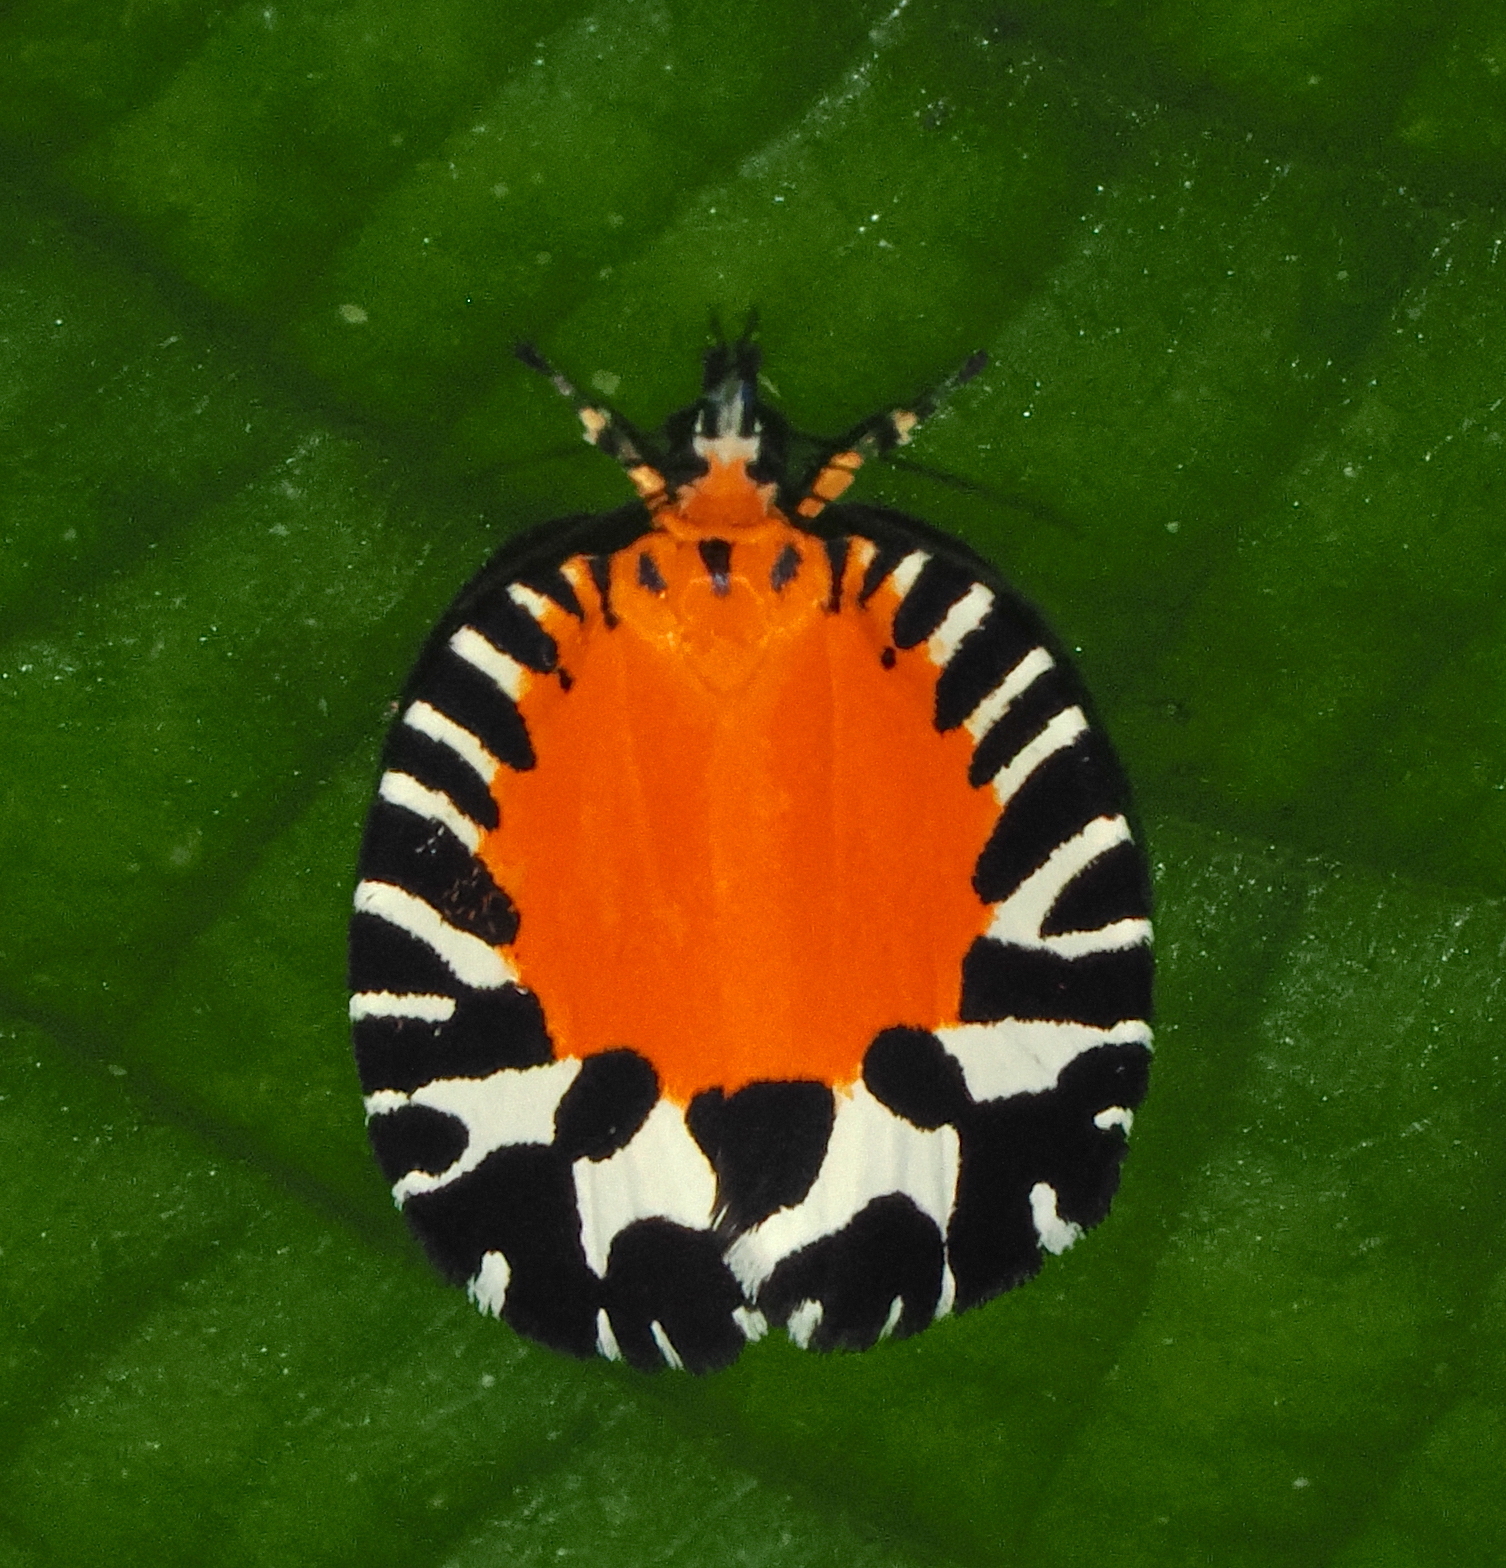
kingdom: Animalia
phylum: Arthropoda
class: Insecta
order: Lepidoptera
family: Tortricidae
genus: Pseudatteria
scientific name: Pseudatteria splendens
